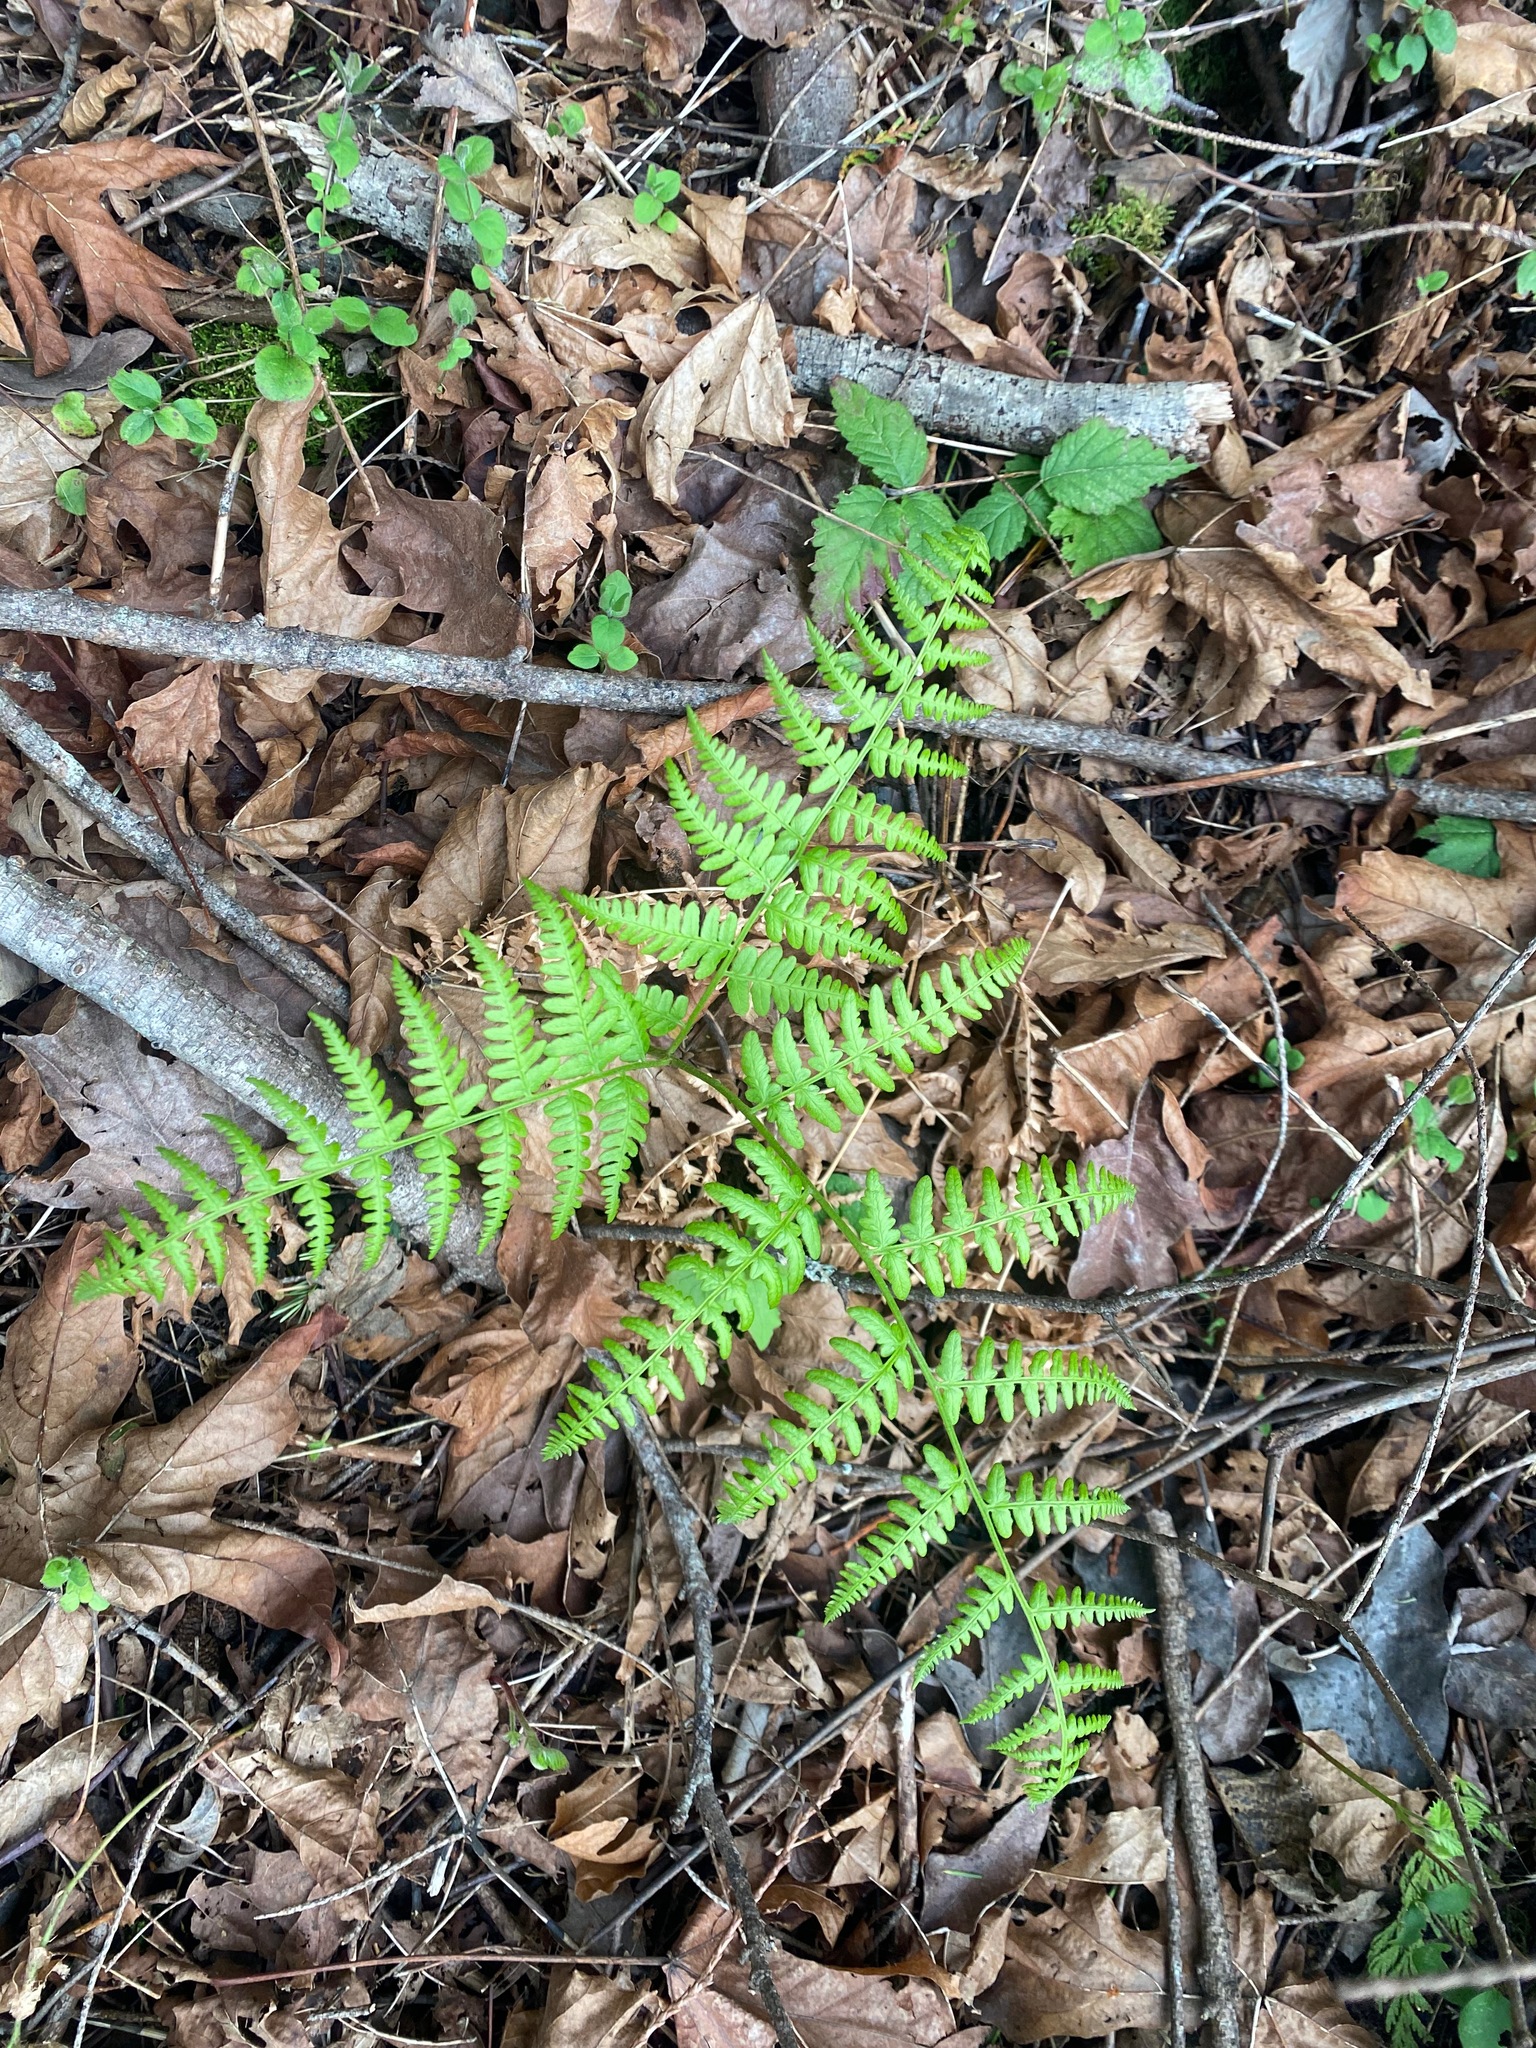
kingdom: Plantae
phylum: Tracheophyta
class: Polypodiopsida
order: Polypodiales
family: Dennstaedtiaceae
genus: Pteridium
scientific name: Pteridium aquilinum
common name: Bracken
